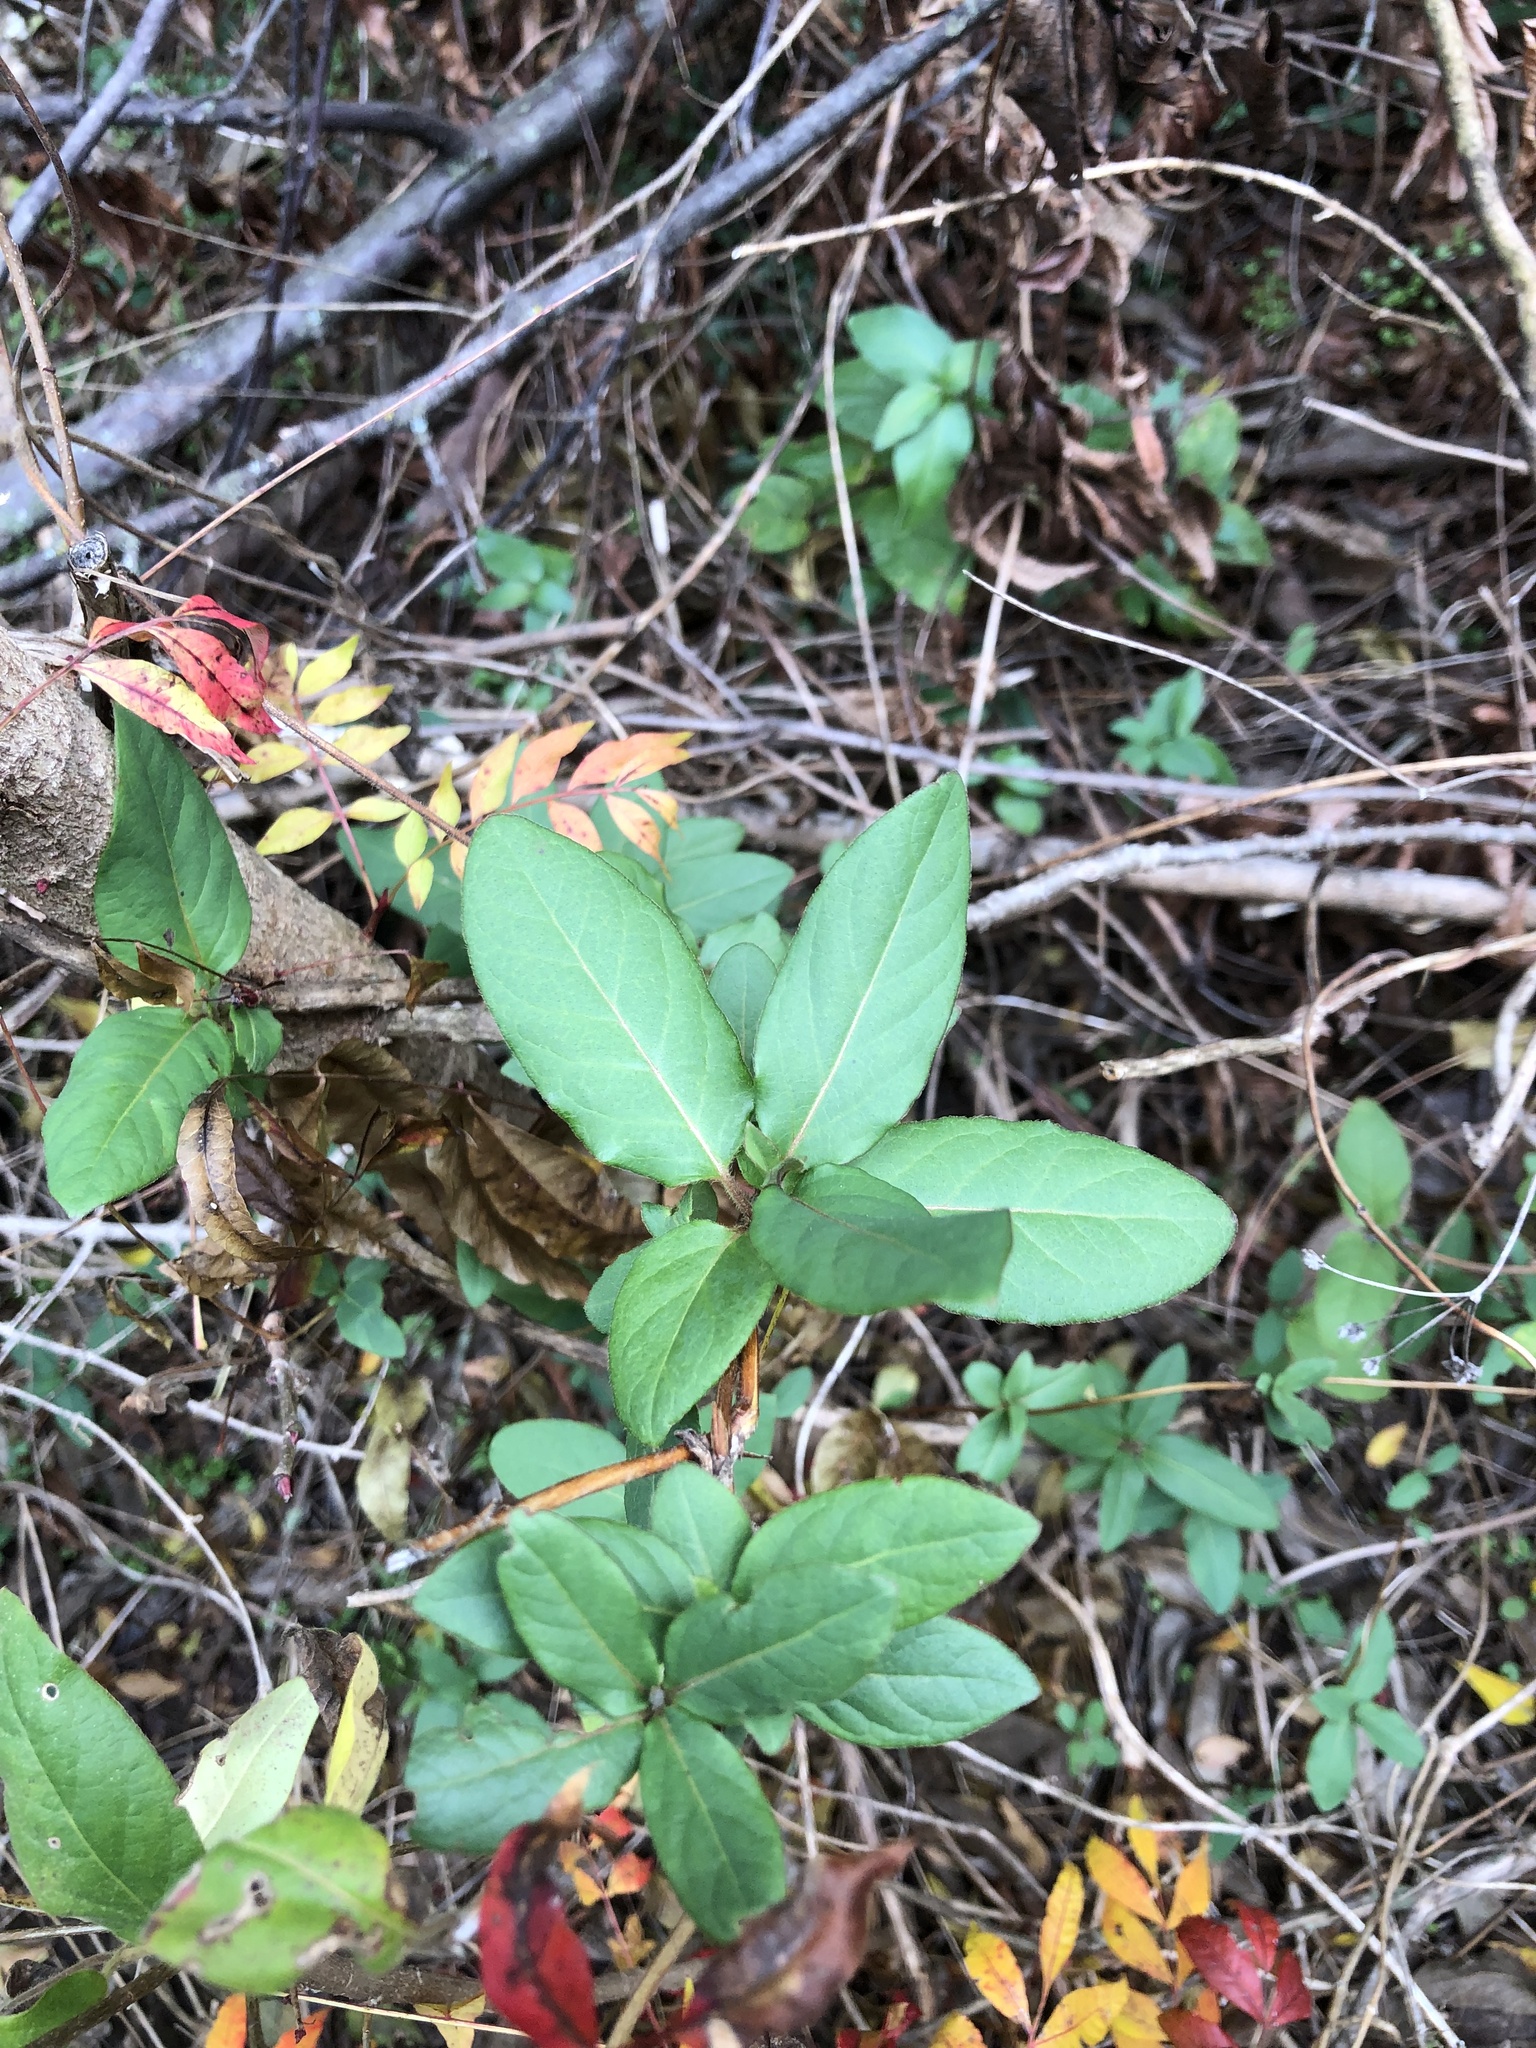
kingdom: Plantae
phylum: Tracheophyta
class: Magnoliopsida
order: Dipsacales
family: Caprifoliaceae
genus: Lonicera
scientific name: Lonicera japonica
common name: Japanese honeysuckle
